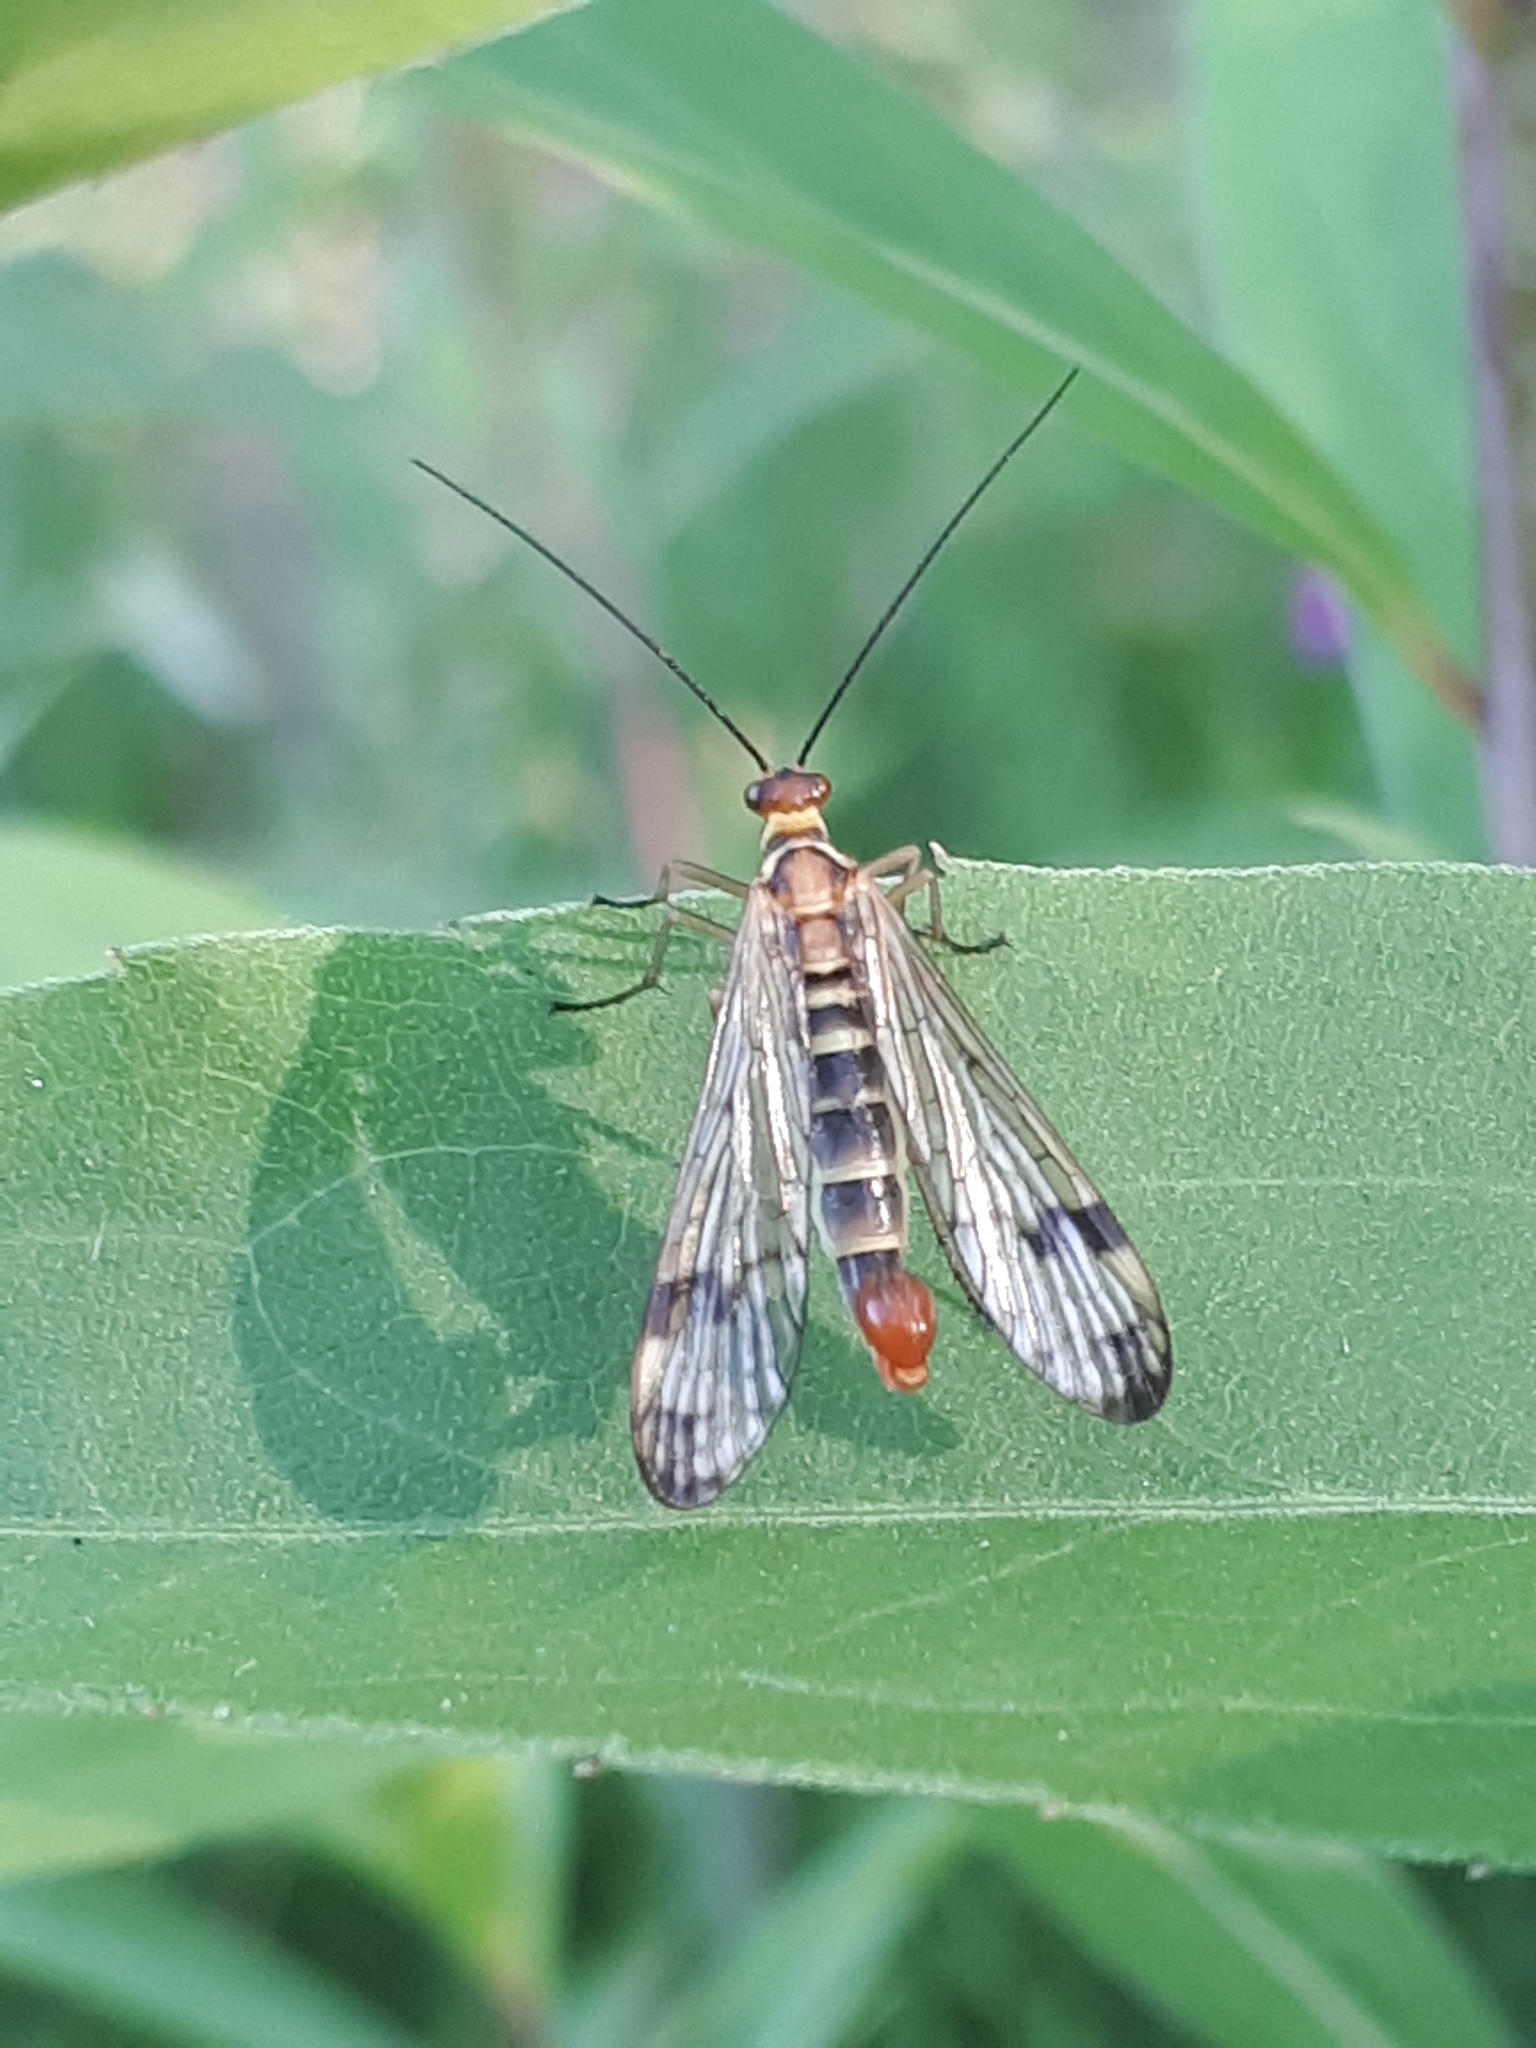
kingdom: Animalia
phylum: Arthropoda
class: Insecta
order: Mecoptera
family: Panorpidae
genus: Panorpa
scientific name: Panorpa cognata
